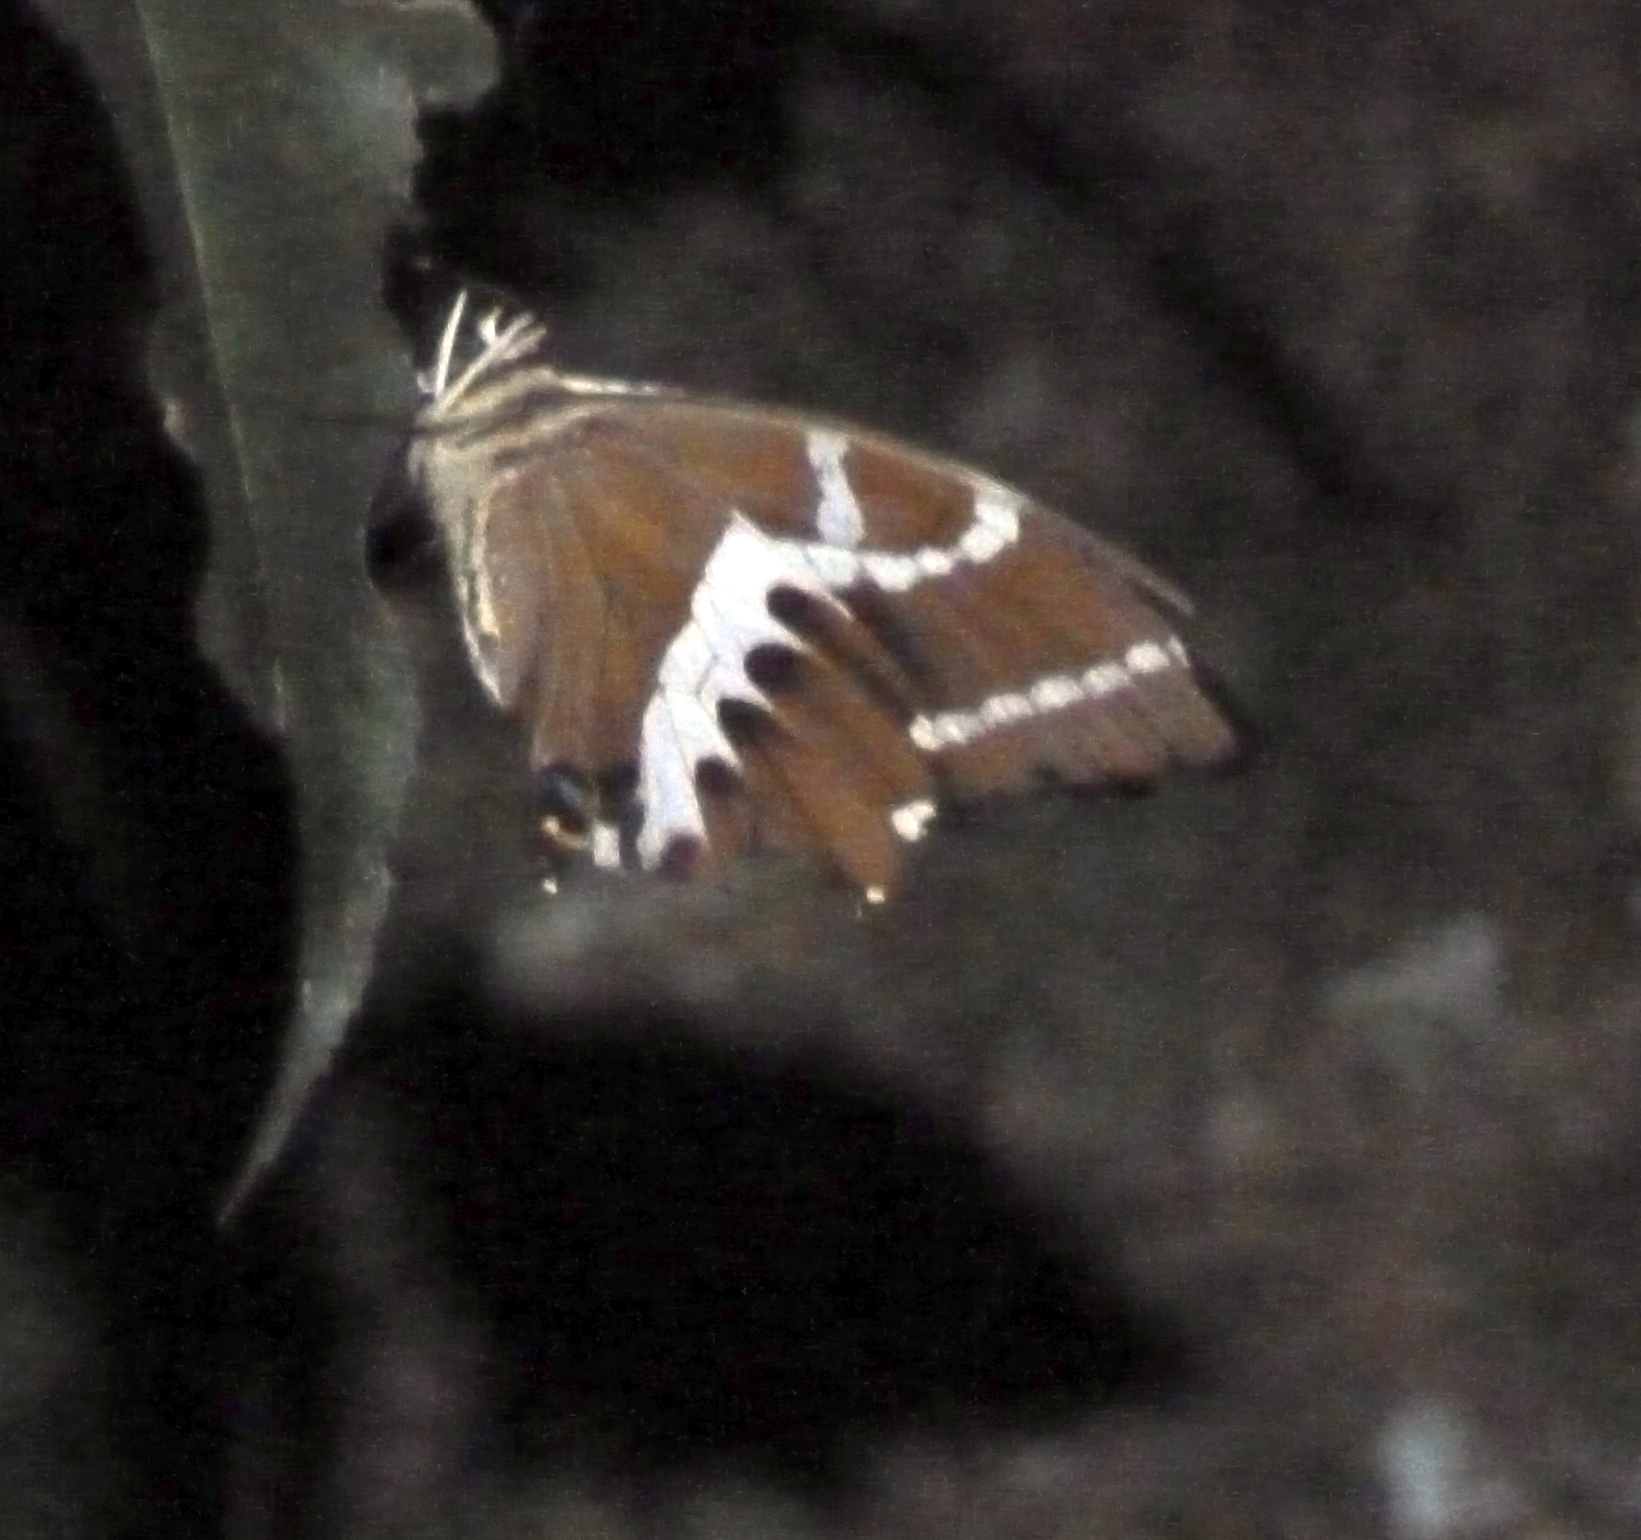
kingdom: Animalia
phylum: Arthropoda
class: Insecta
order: Lepidoptera
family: Papilionidae
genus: Papilio
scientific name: Papilio delalandei
